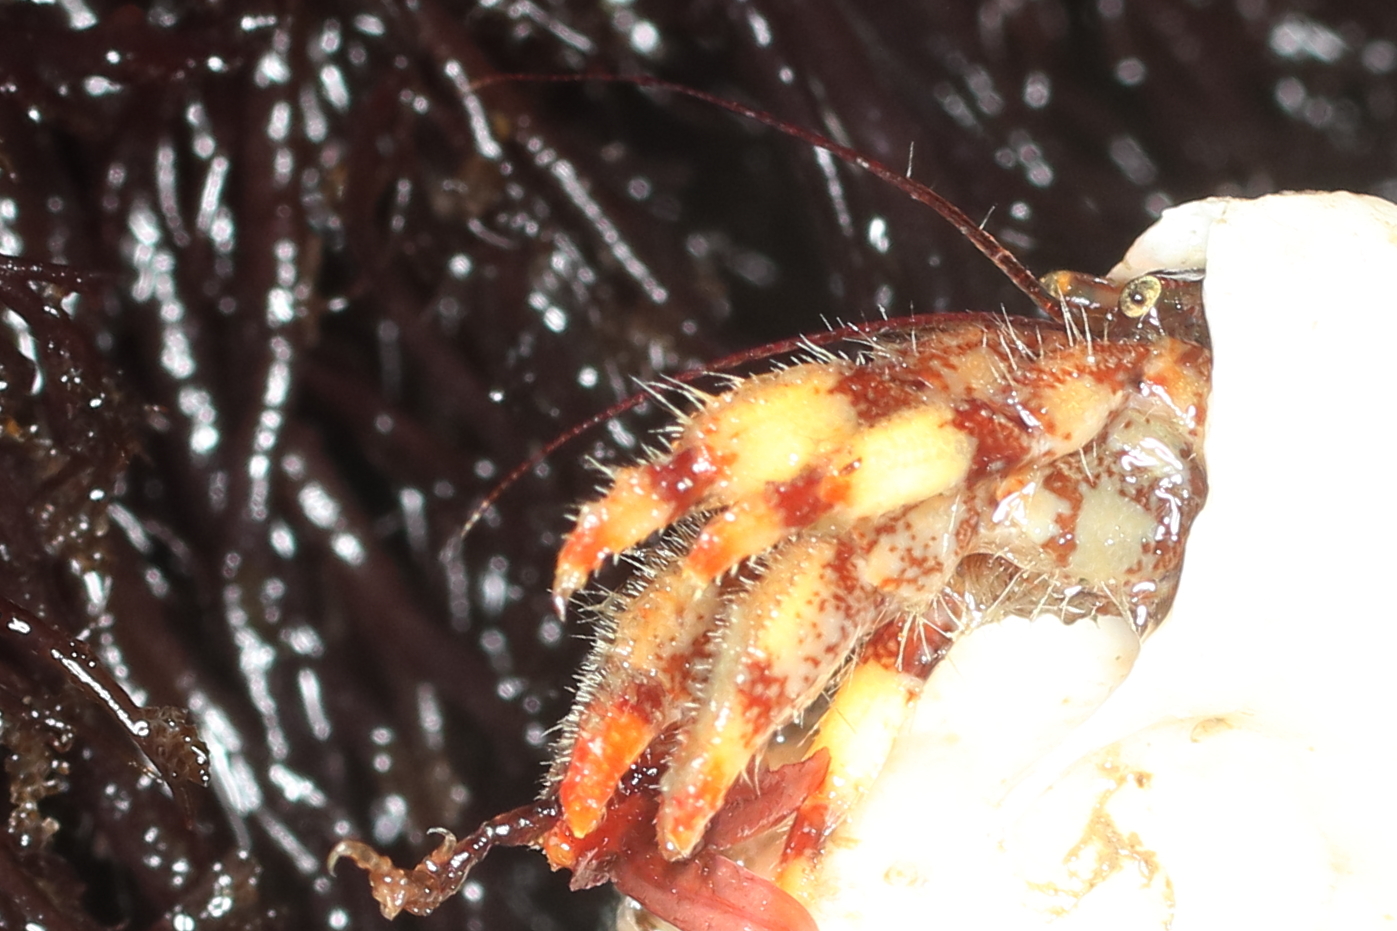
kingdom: Animalia
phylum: Arthropoda
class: Malacostraca
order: Decapoda
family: Paguridae
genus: Discorsopagurus
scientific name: Discorsopagurus schmitti
